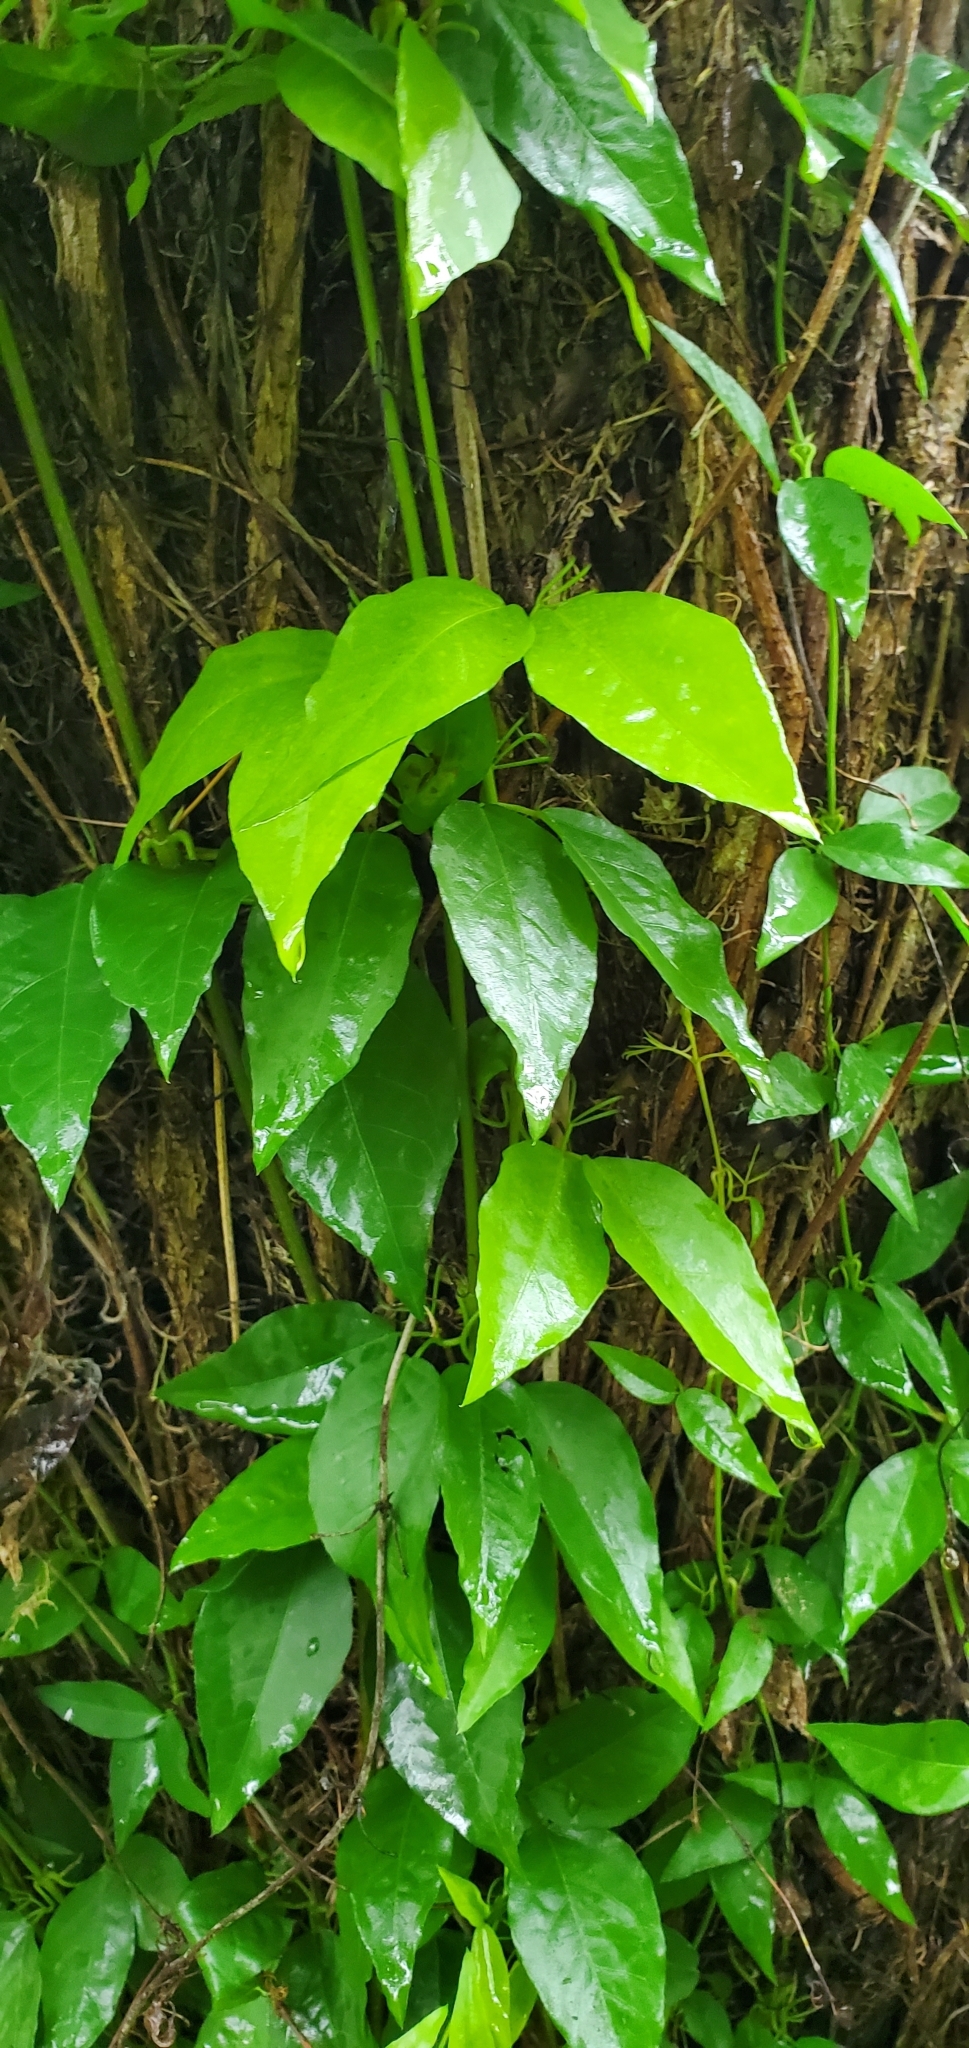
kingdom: Plantae
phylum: Tracheophyta
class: Magnoliopsida
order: Lamiales
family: Bignoniaceae
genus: Dolichandra
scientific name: Dolichandra unguis-cati
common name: Catclaw vine
